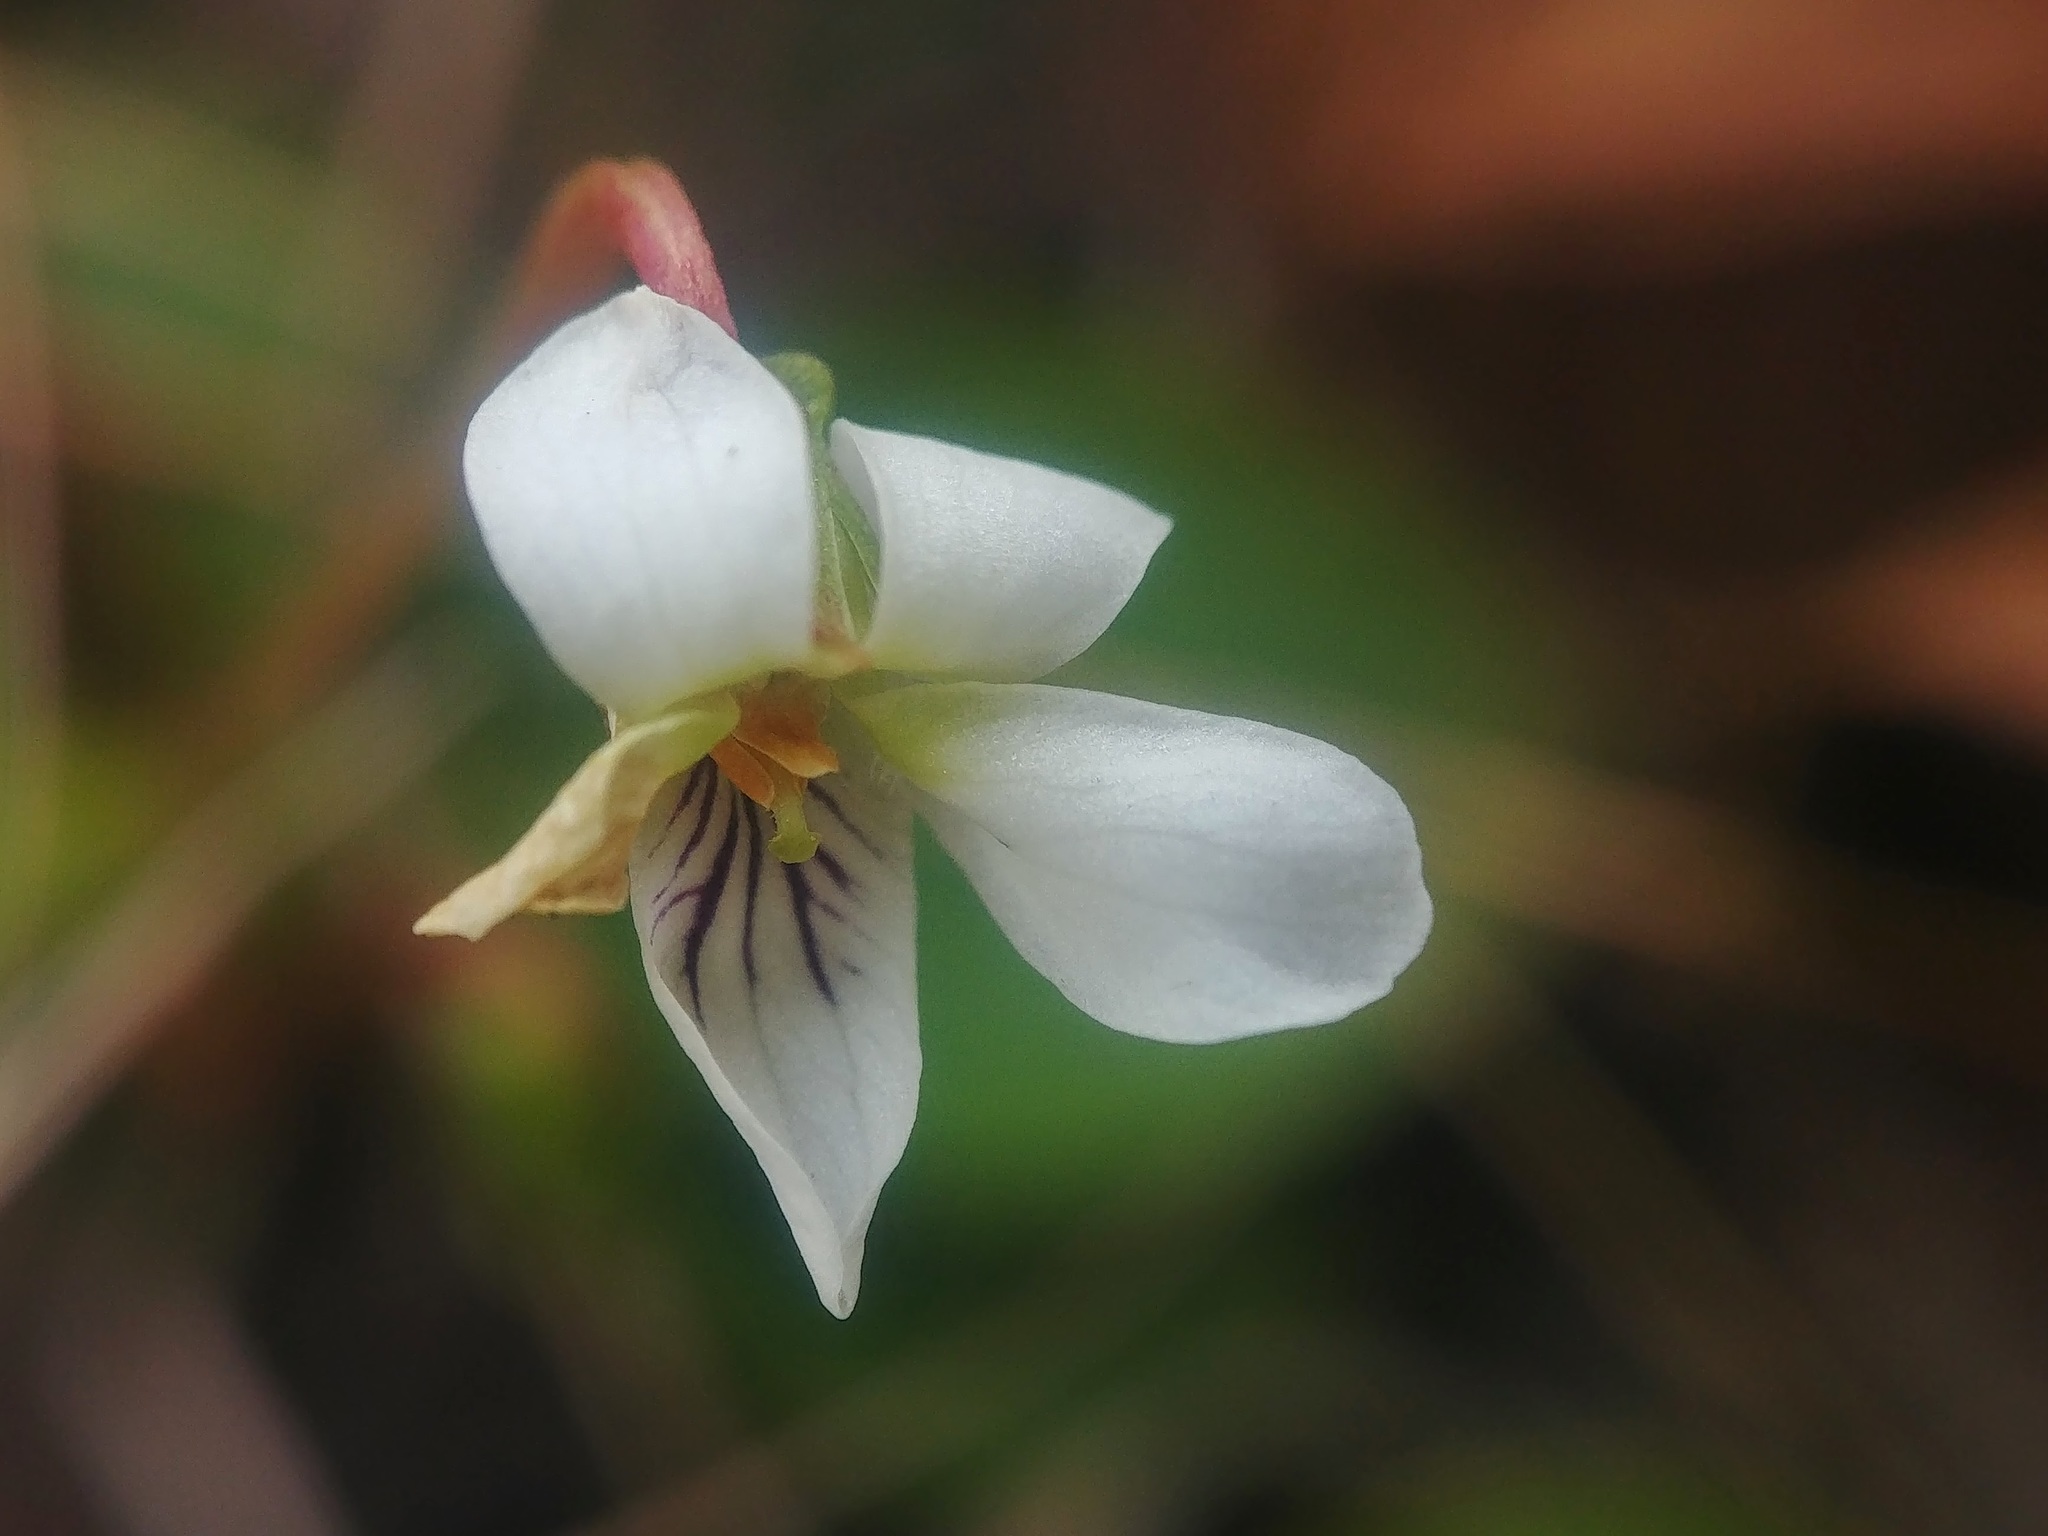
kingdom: Plantae
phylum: Tracheophyta
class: Magnoliopsida
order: Malpighiales
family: Violaceae
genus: Viola
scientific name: Viola primulifolia
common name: Primrose-leaf violet
